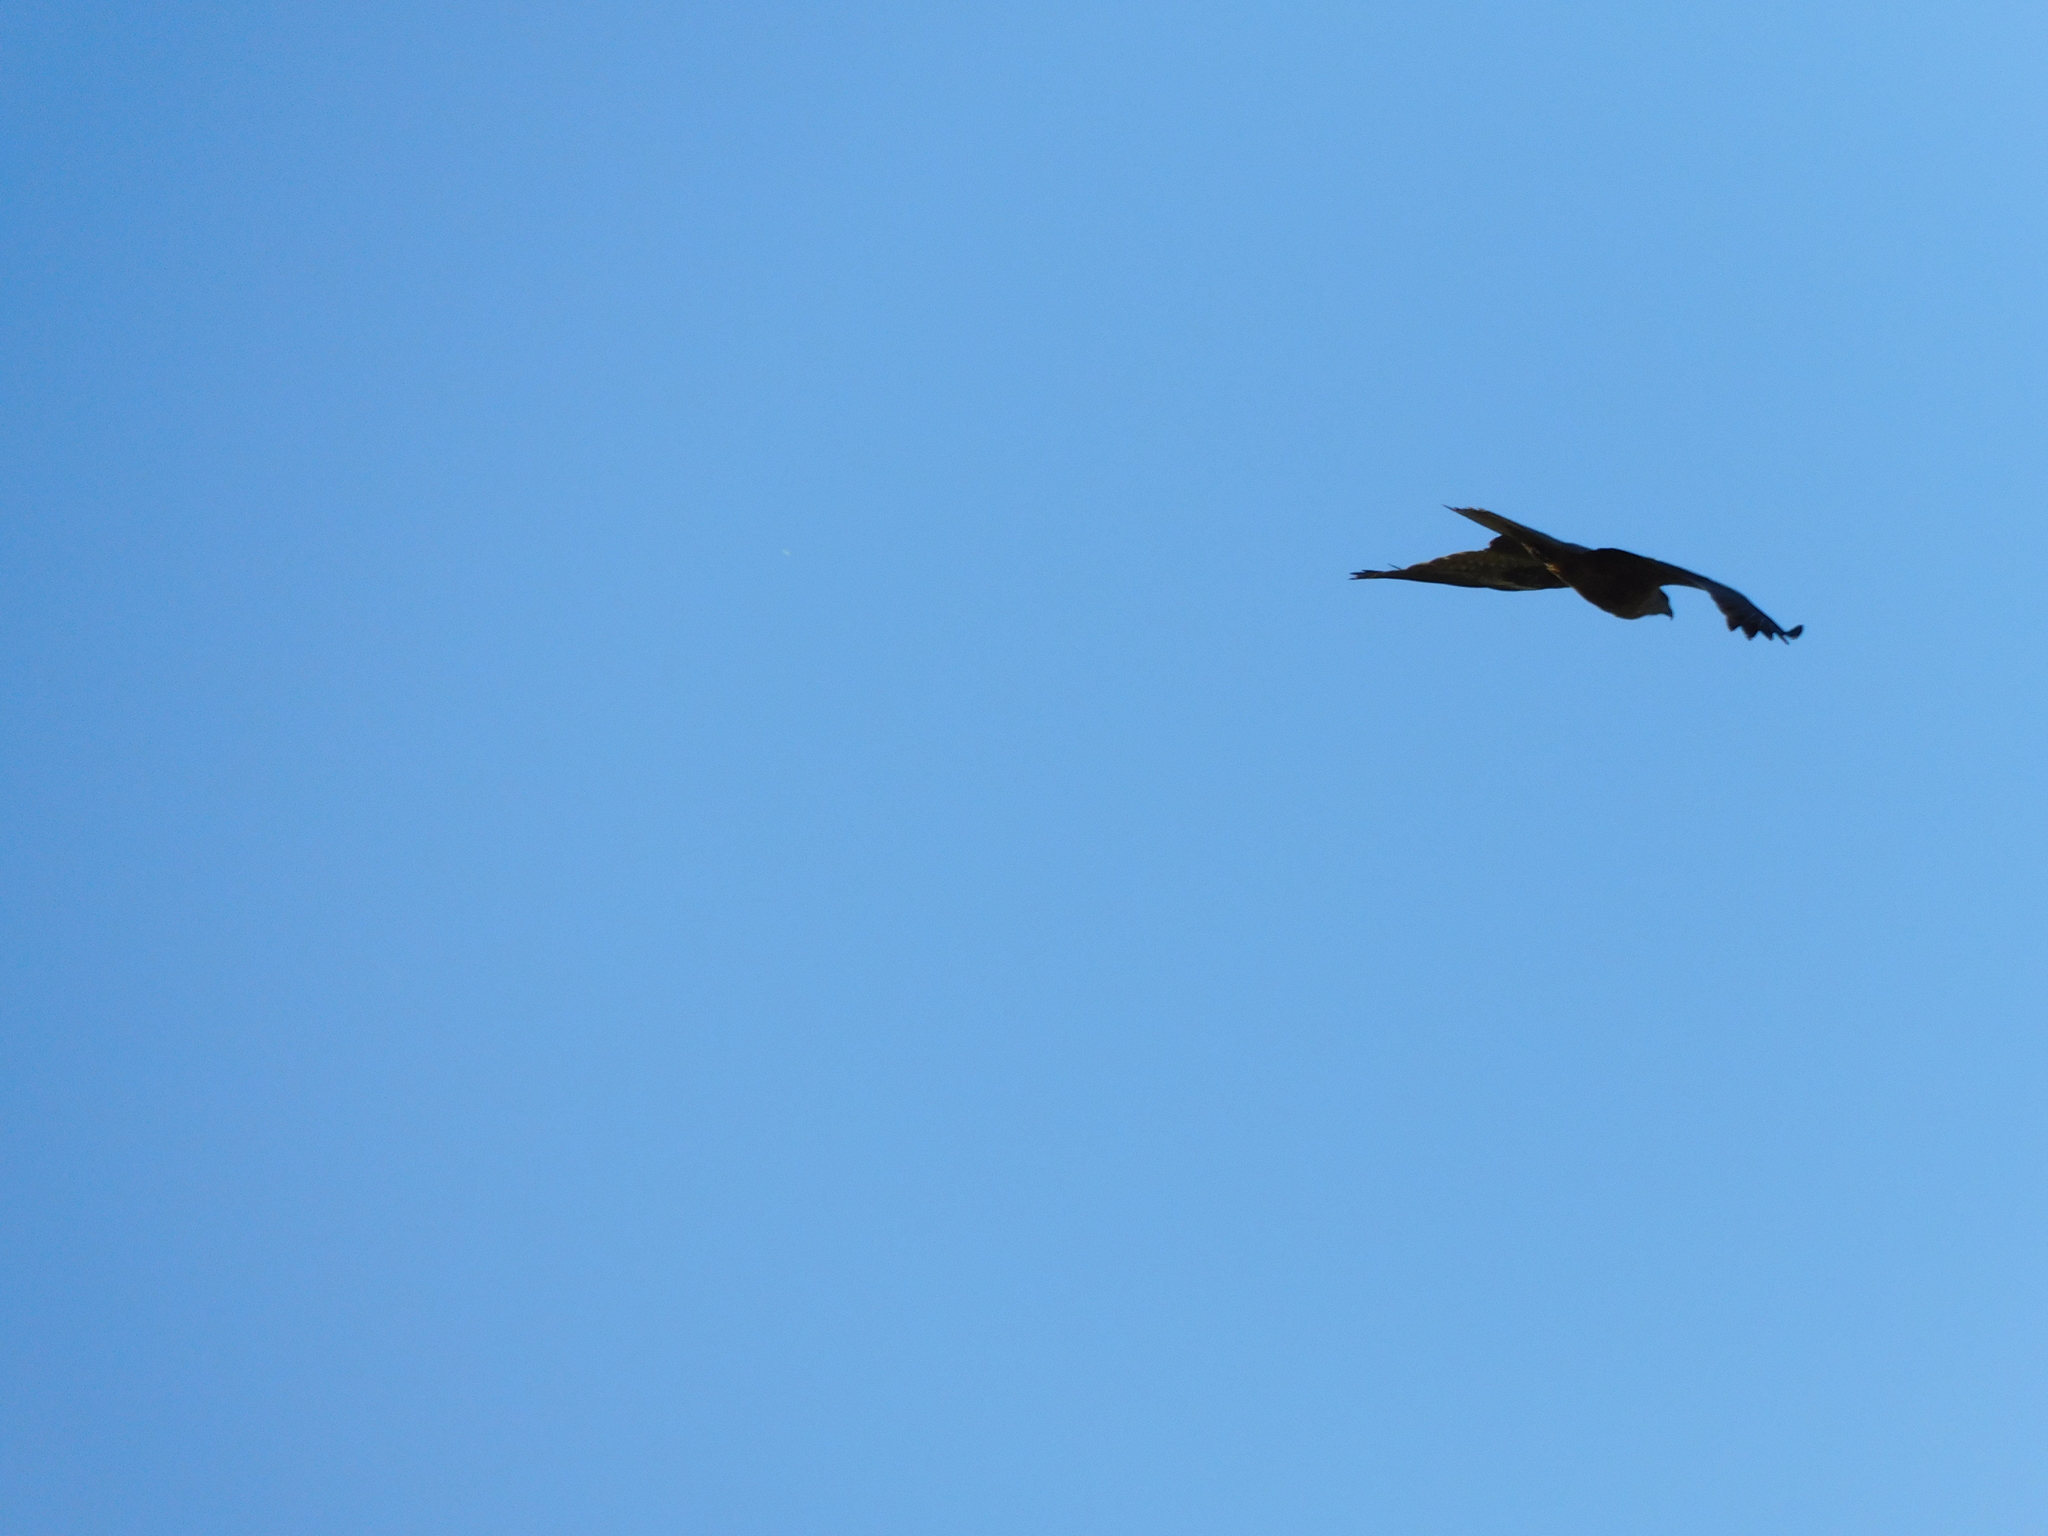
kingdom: Animalia
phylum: Chordata
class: Aves
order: Accipitriformes
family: Accipitridae
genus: Milvus
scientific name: Milvus migrans
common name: Black kite
